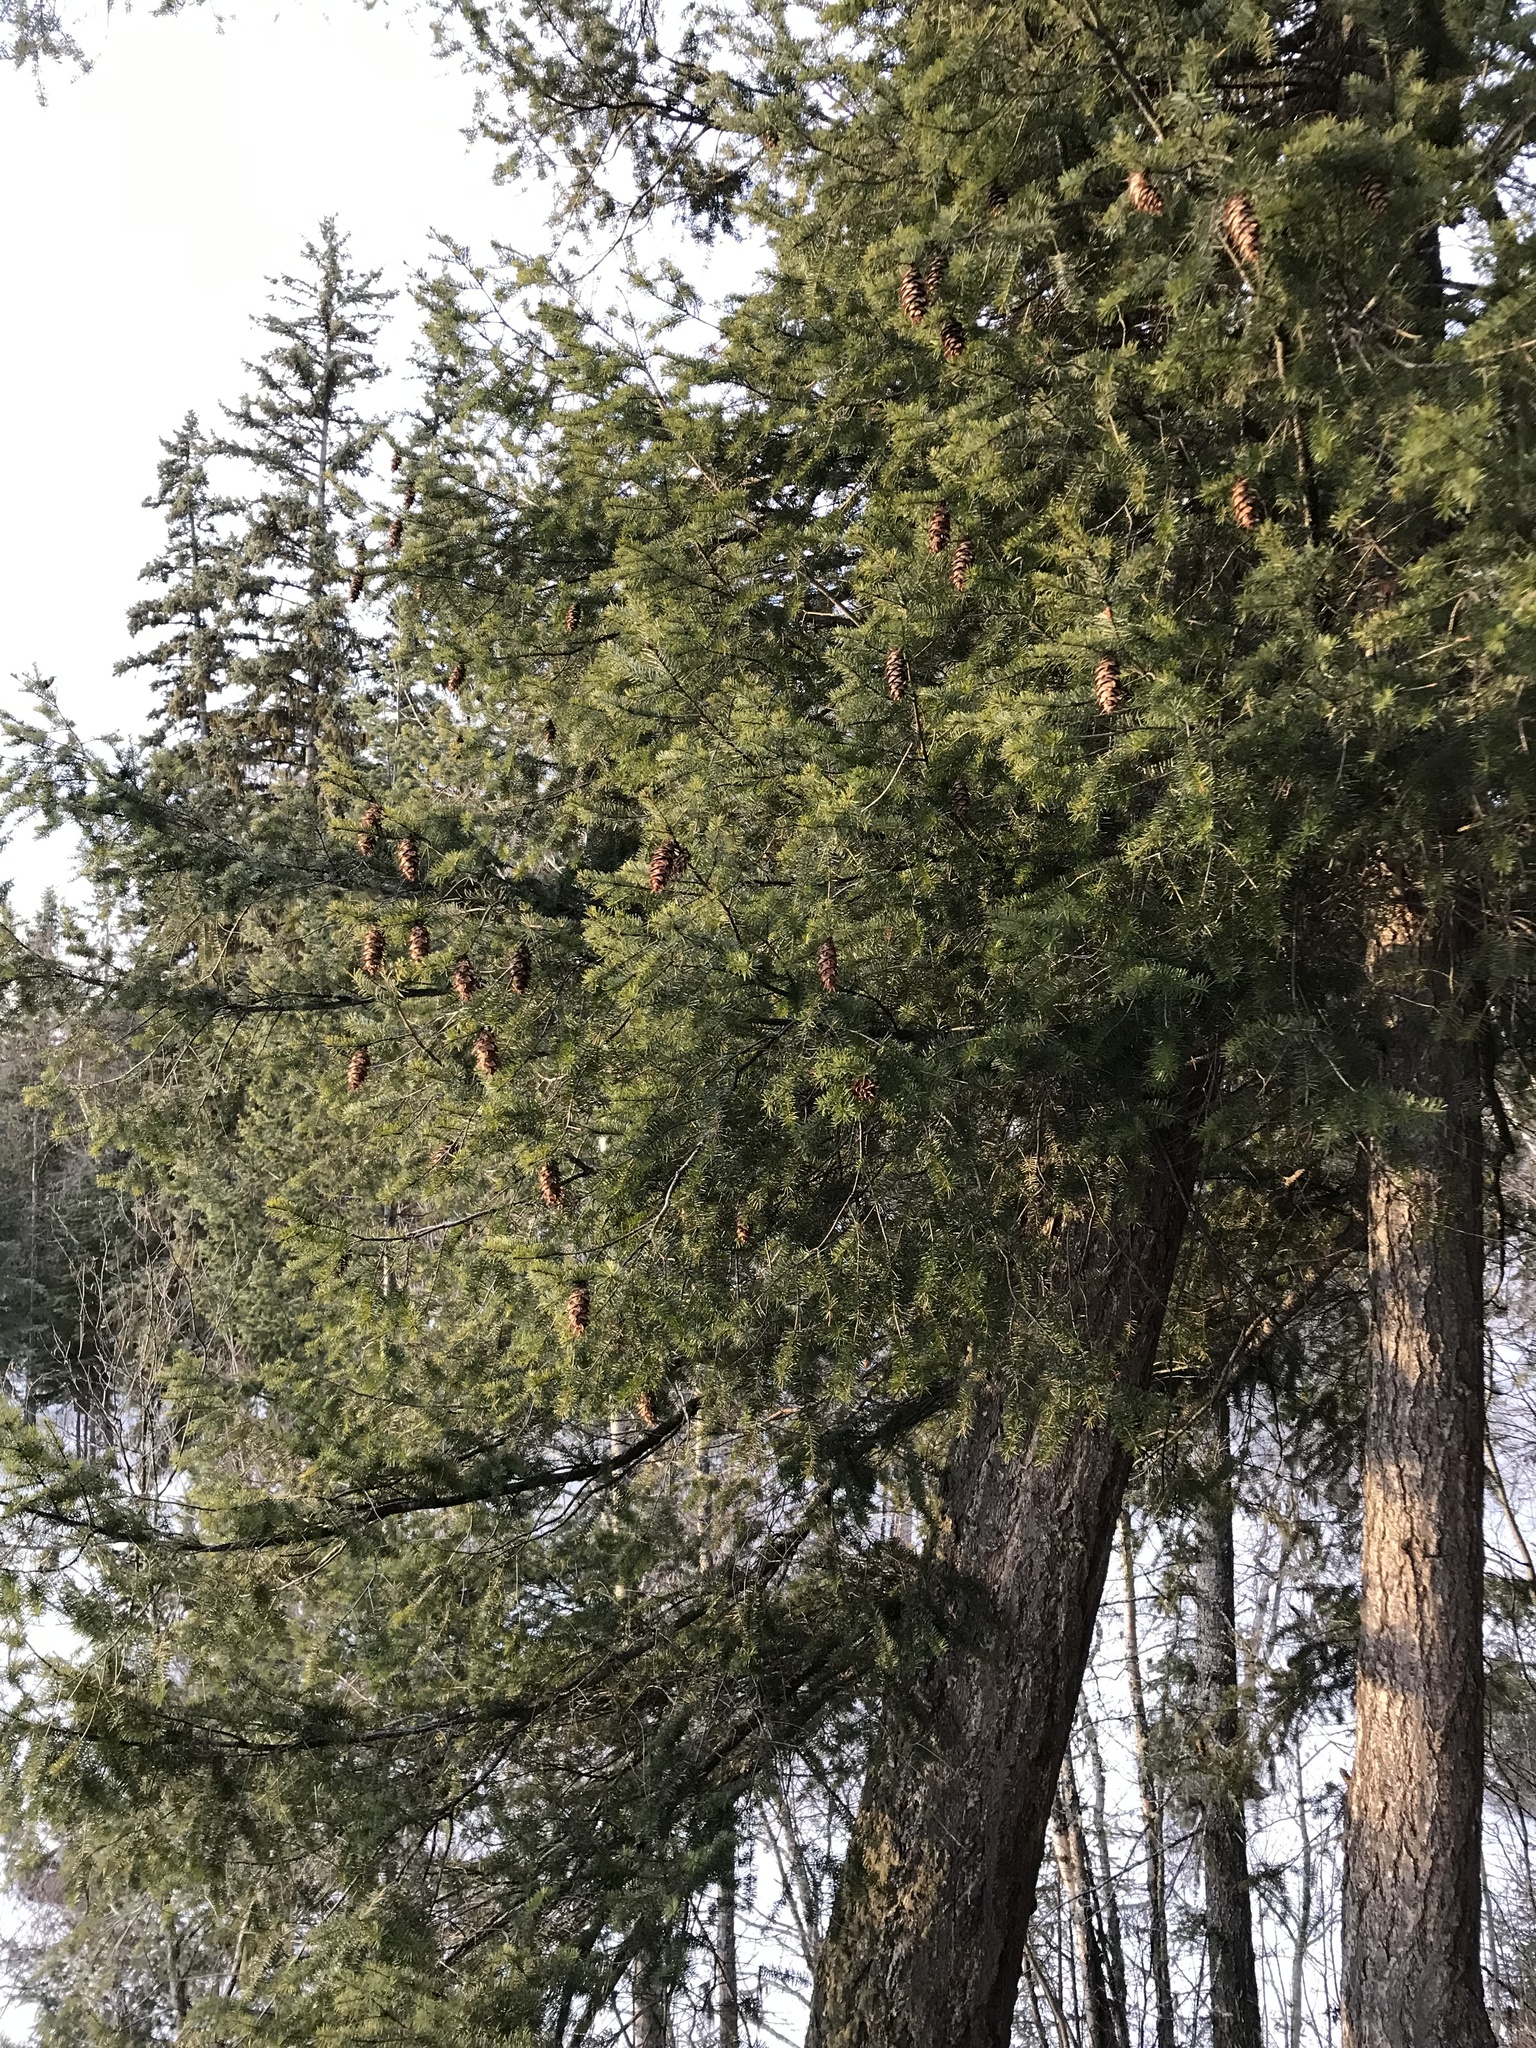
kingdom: Plantae
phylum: Tracheophyta
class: Pinopsida
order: Pinales
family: Pinaceae
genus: Pseudotsuga
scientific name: Pseudotsuga menziesii
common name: Douglas fir
